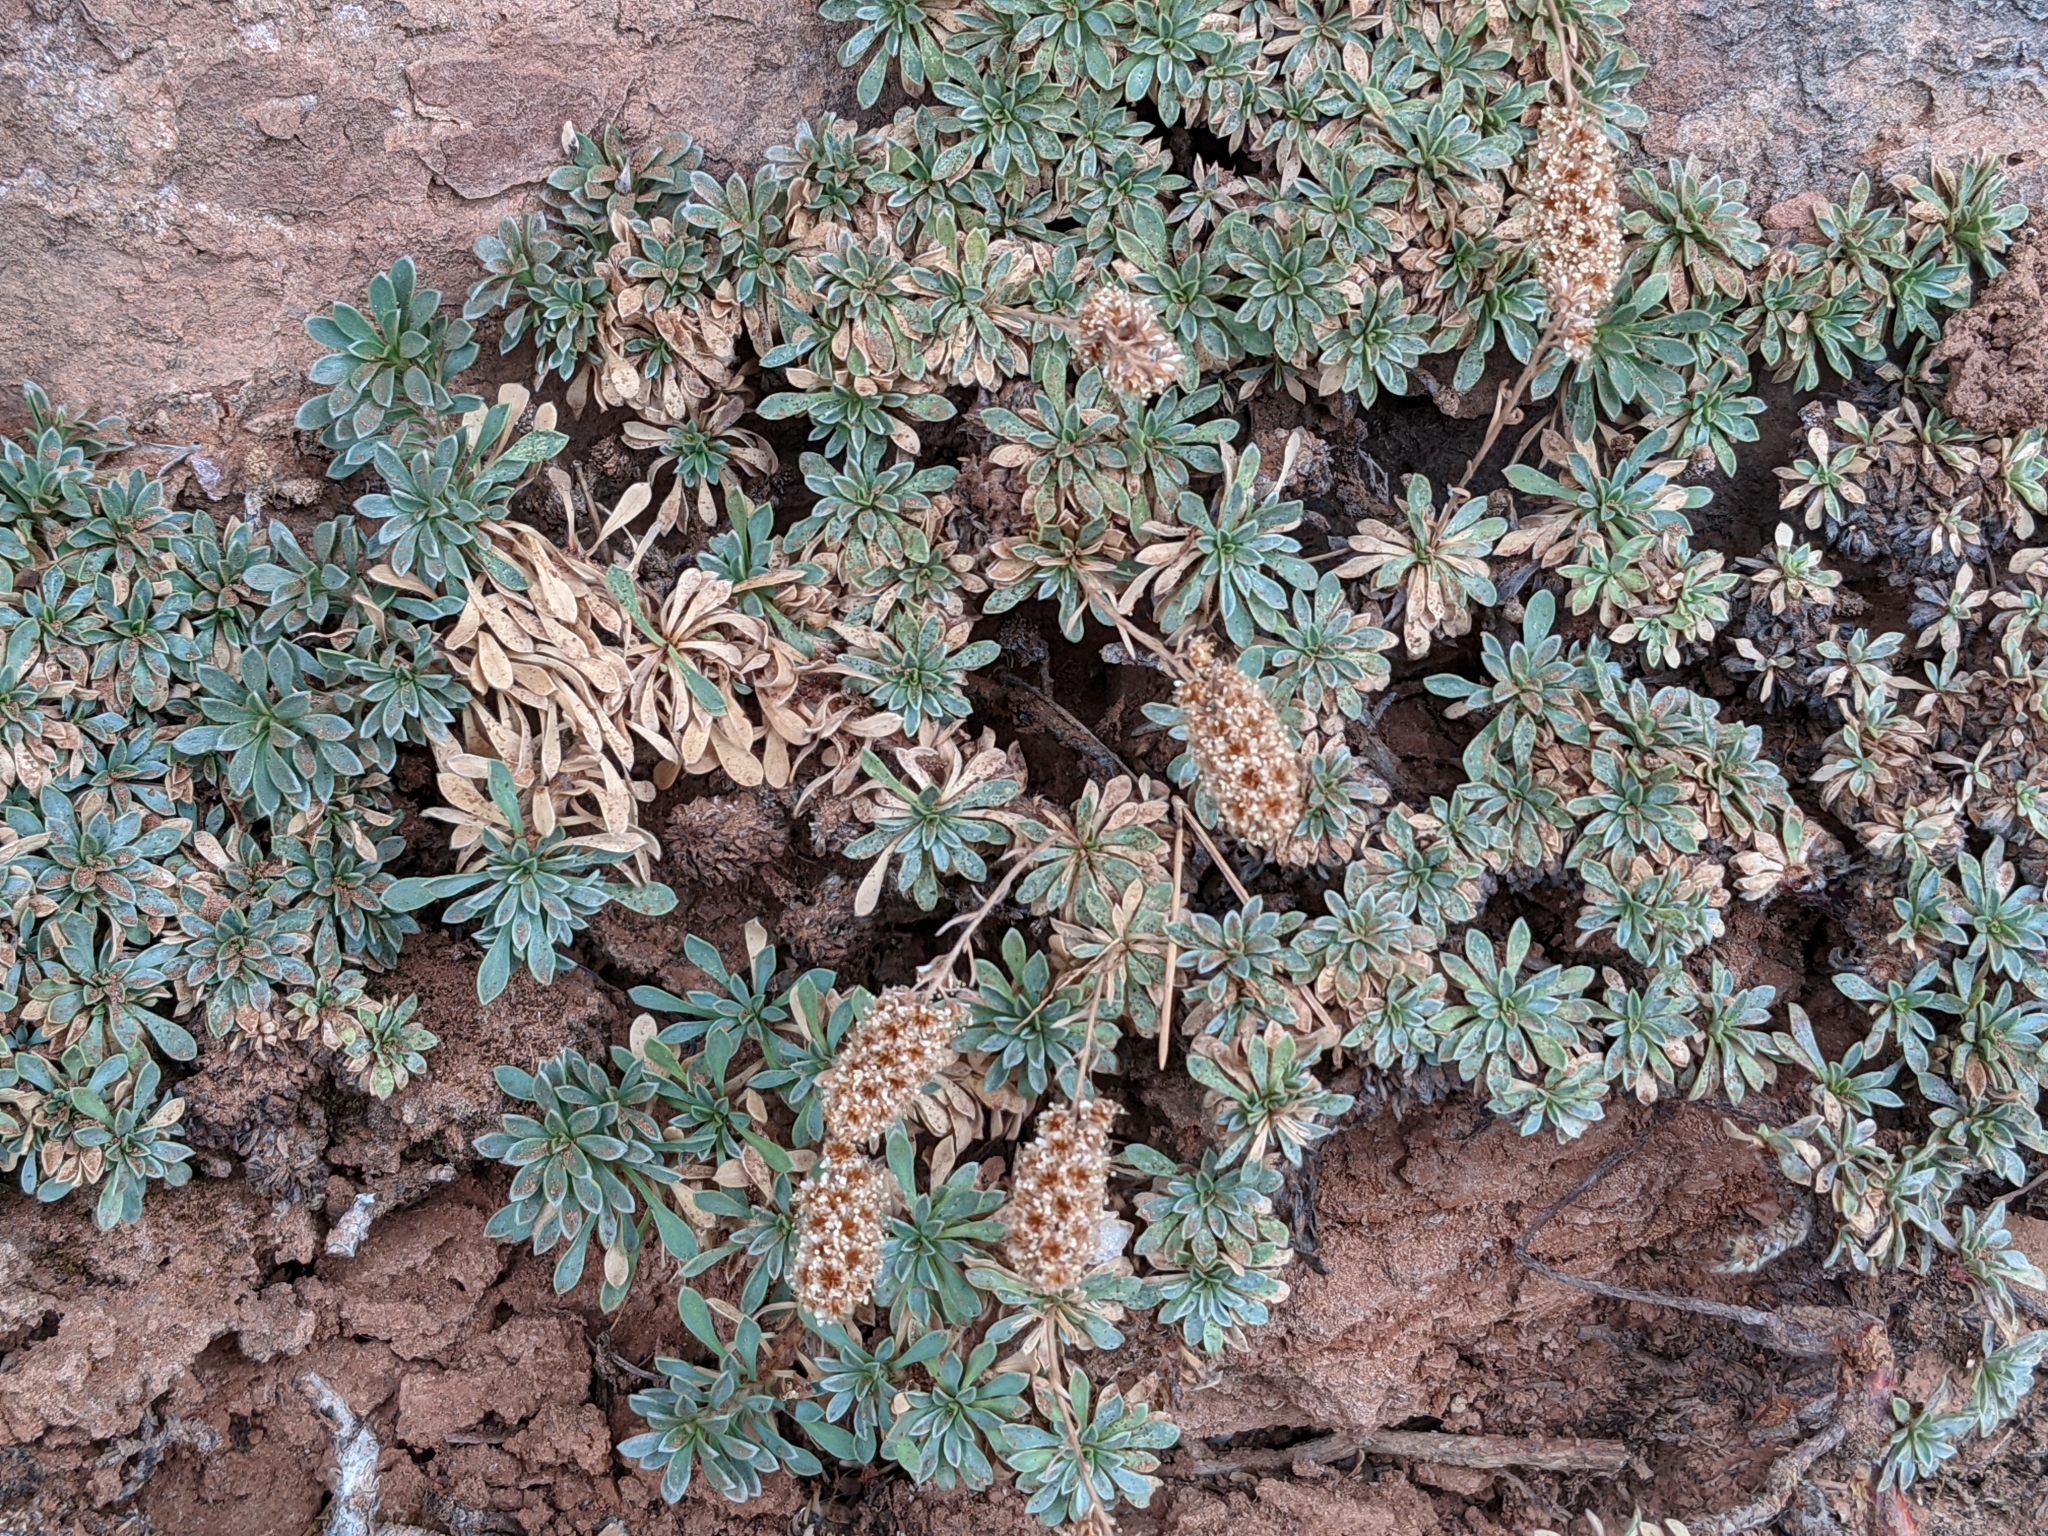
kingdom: Plantae
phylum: Tracheophyta
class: Magnoliopsida
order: Rosales
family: Rosaceae
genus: Petrophytum
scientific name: Petrophytum caespitosum
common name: Mat rockspirea
